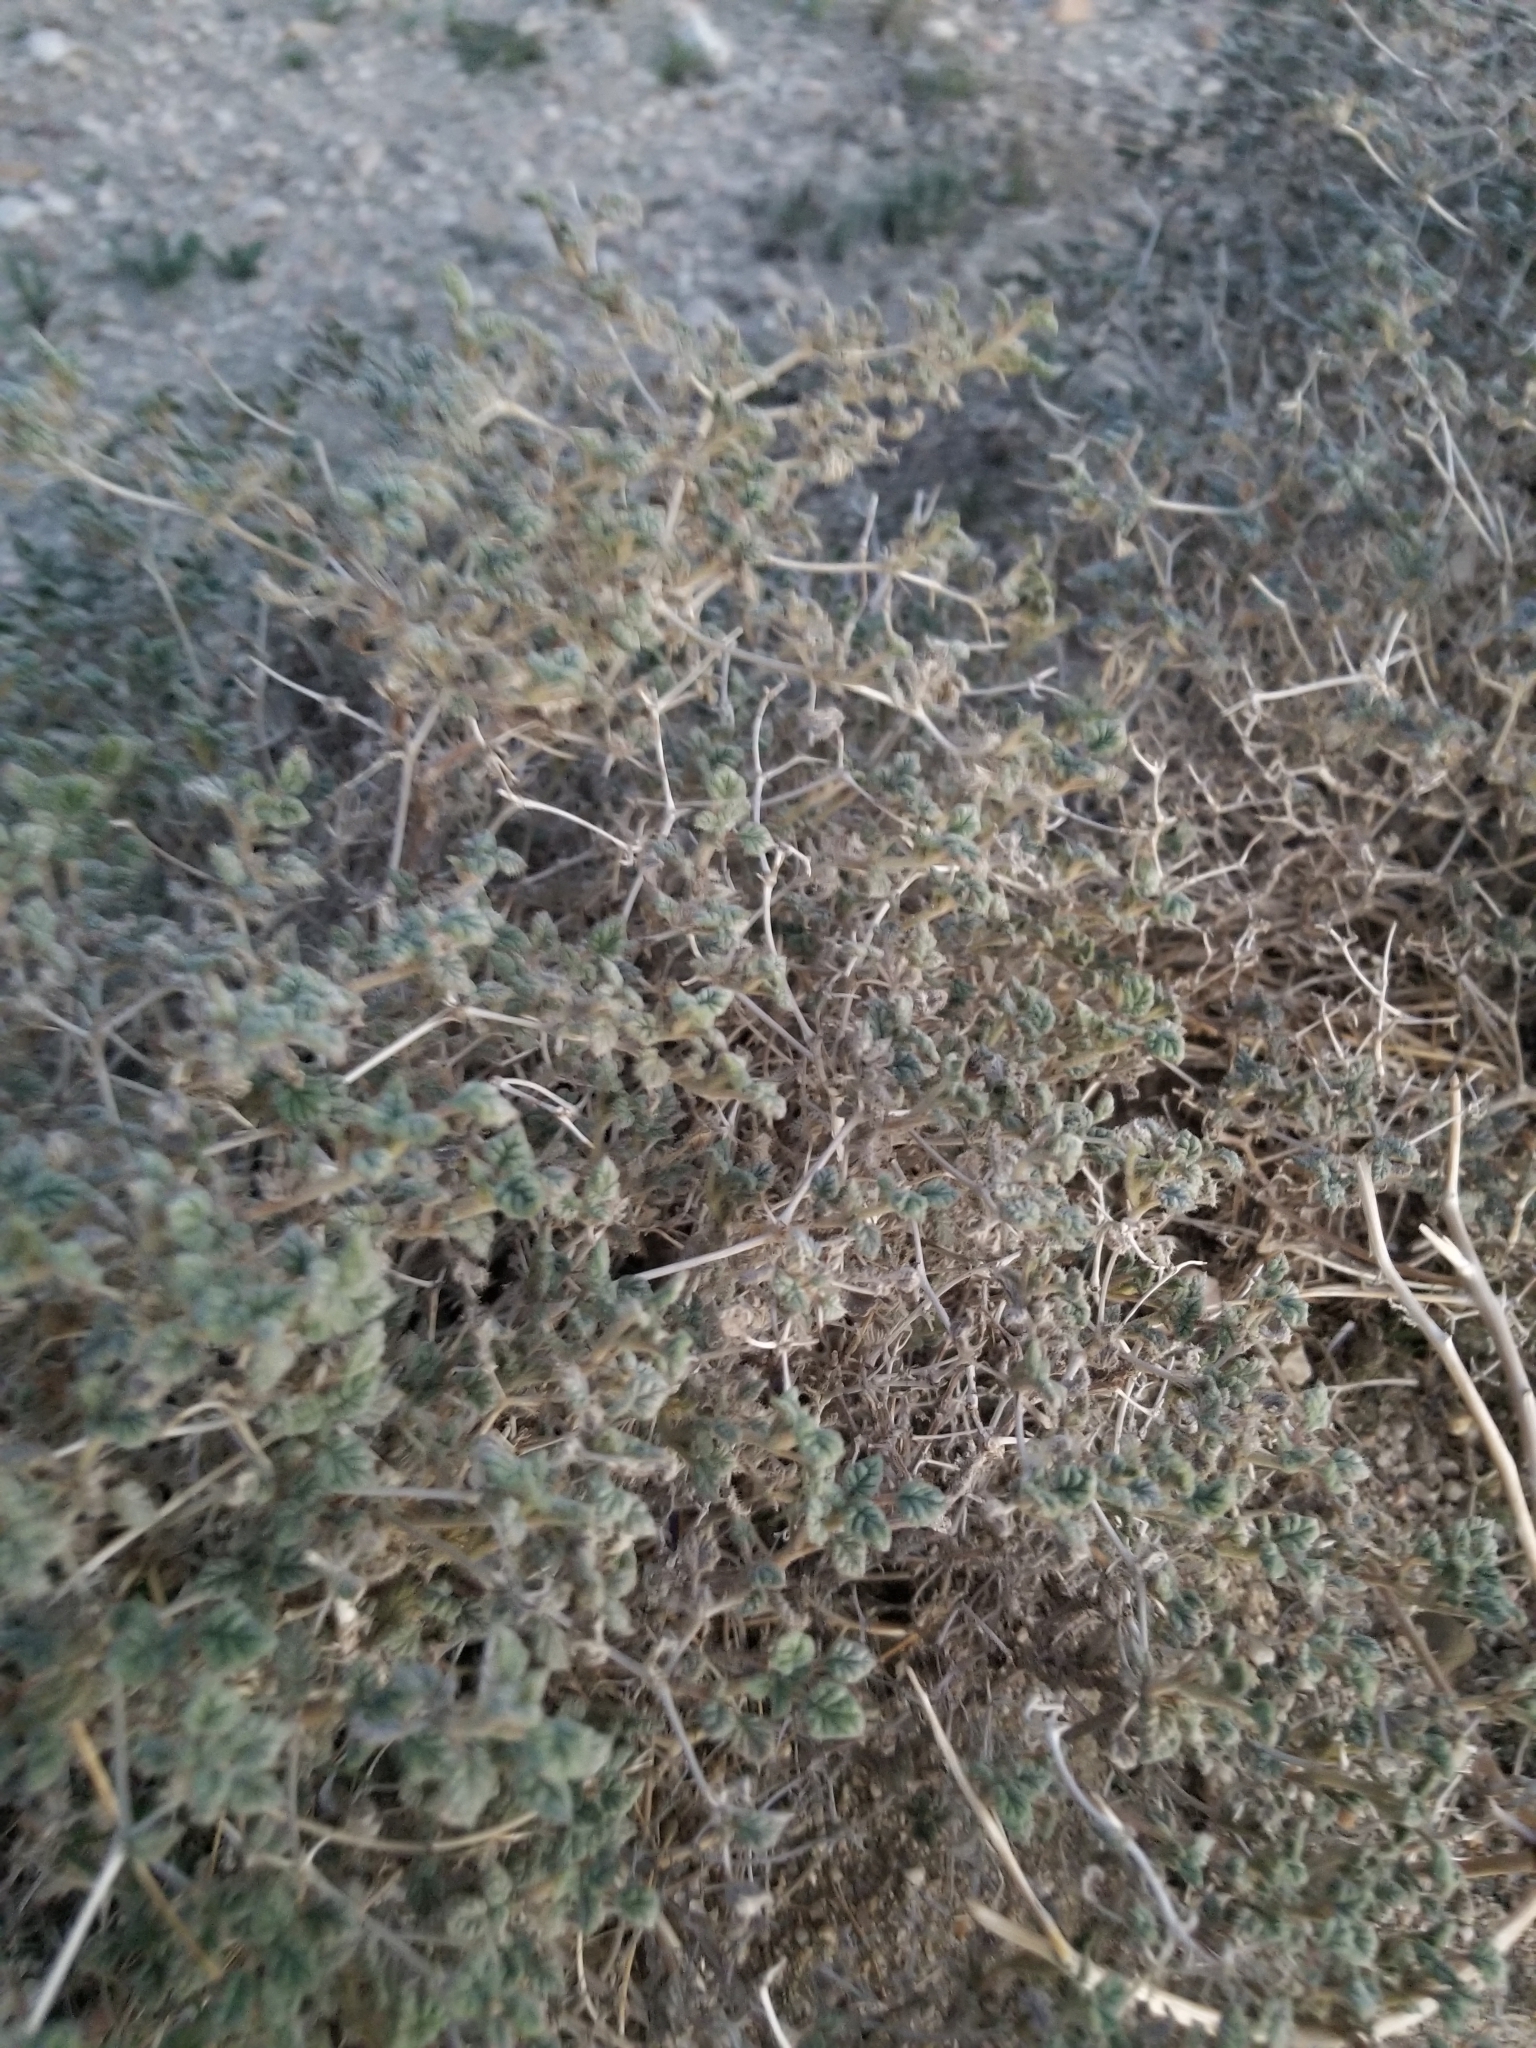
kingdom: Plantae
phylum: Tracheophyta
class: Magnoliopsida
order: Boraginales
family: Ehretiaceae
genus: Tiquilia
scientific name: Tiquilia palmeri
